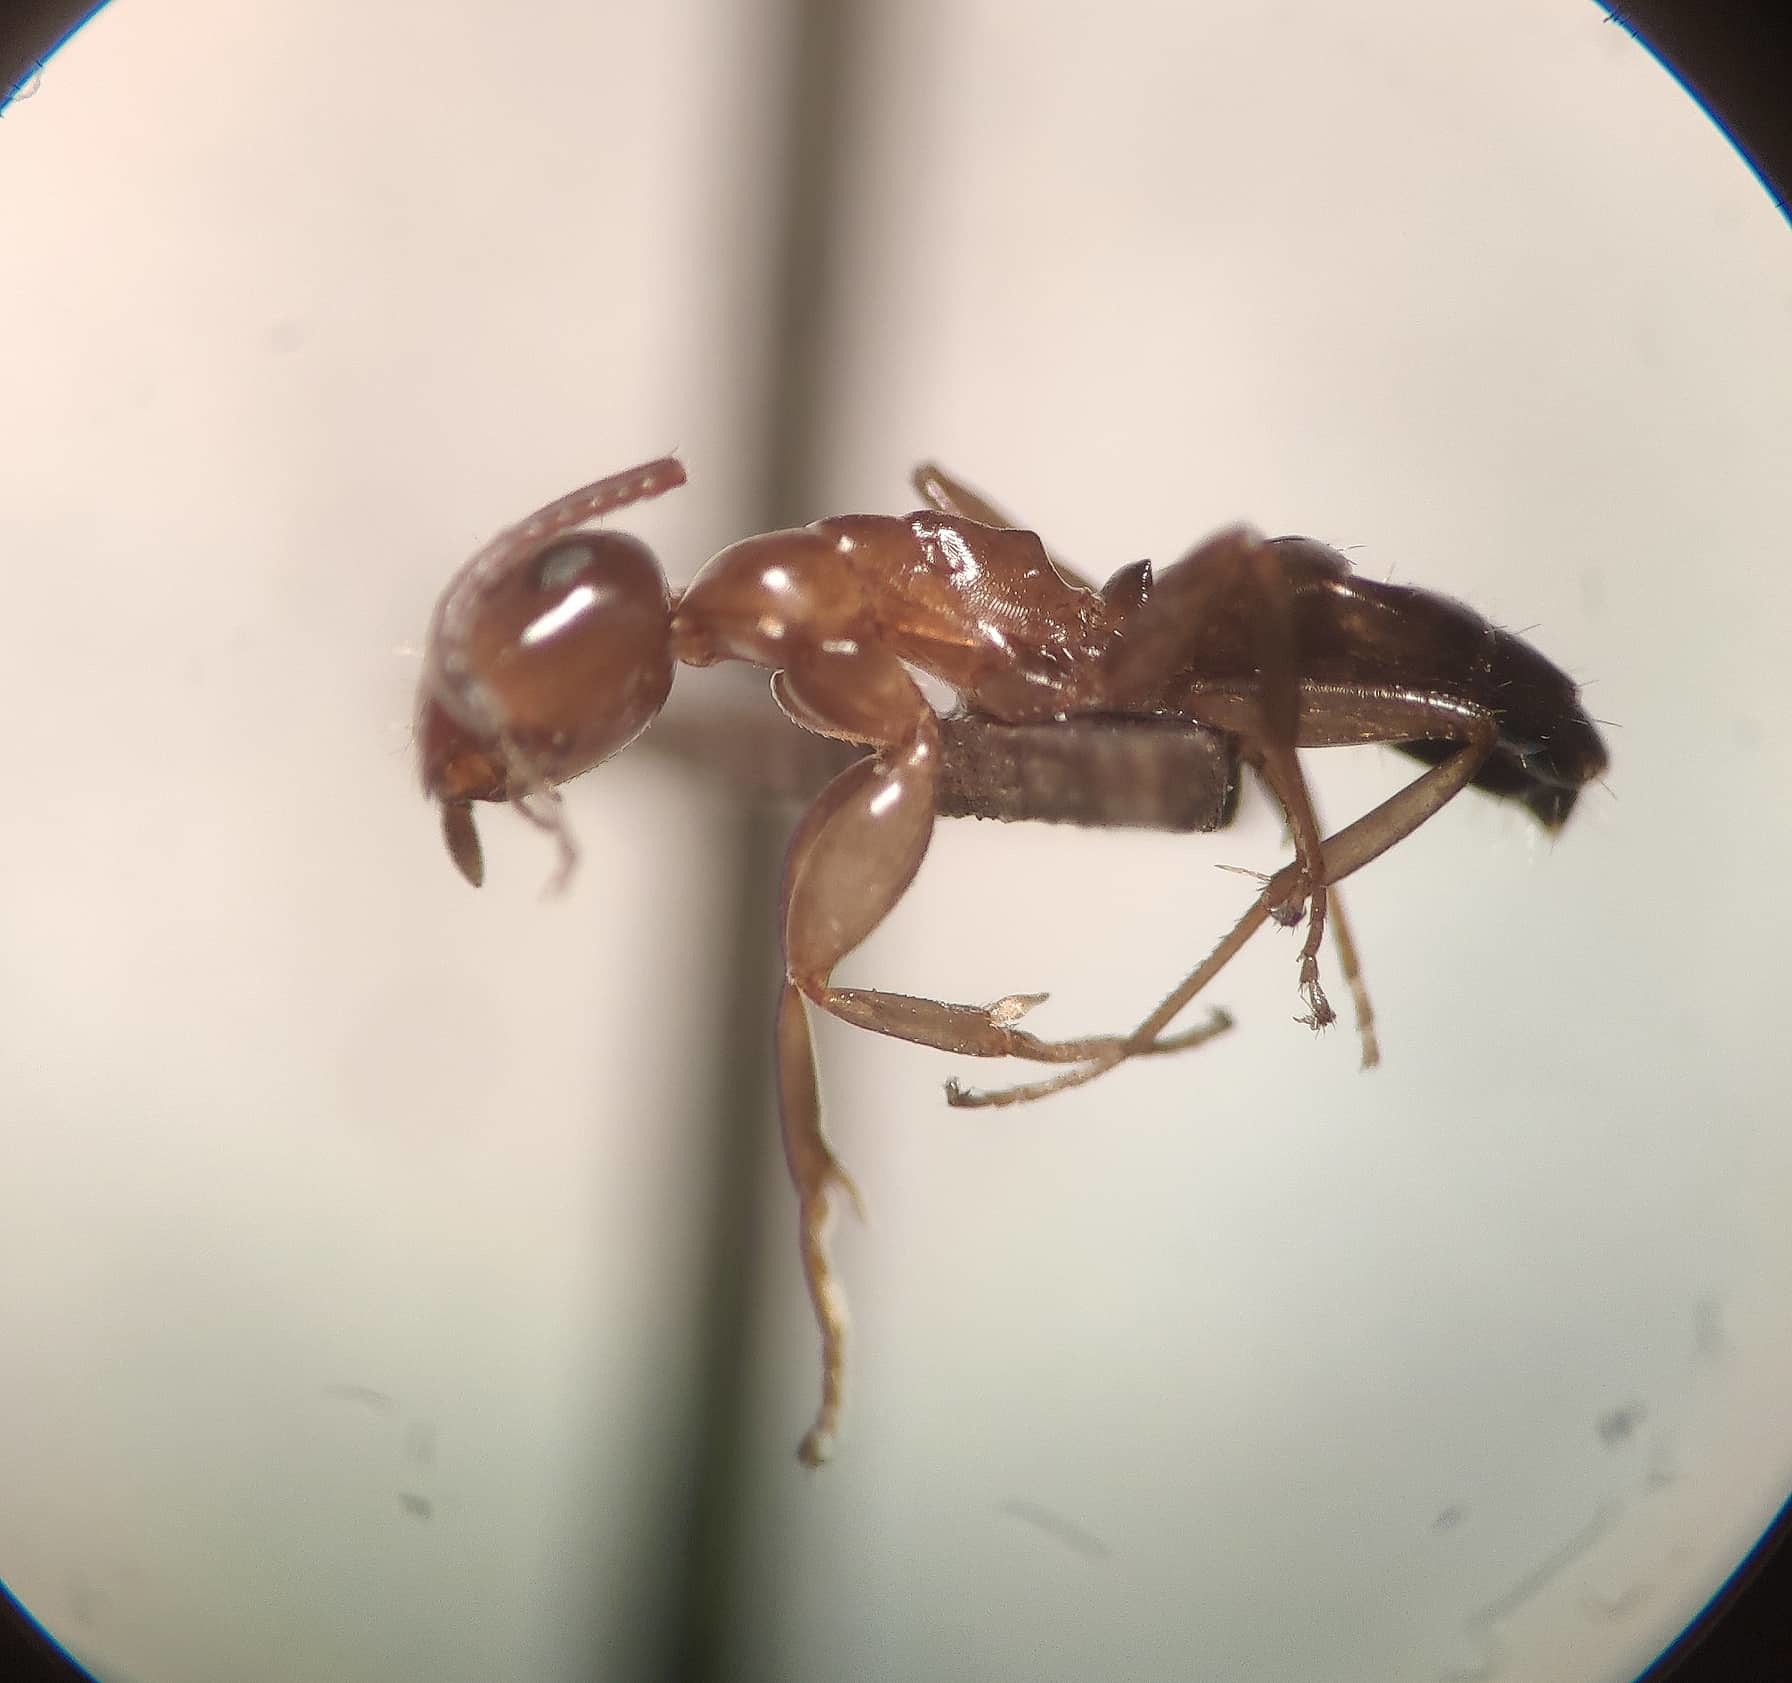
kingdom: Animalia
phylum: Arthropoda
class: Insecta
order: Hymenoptera
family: Formicidae
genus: Camponotus
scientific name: Camponotus truncatus
